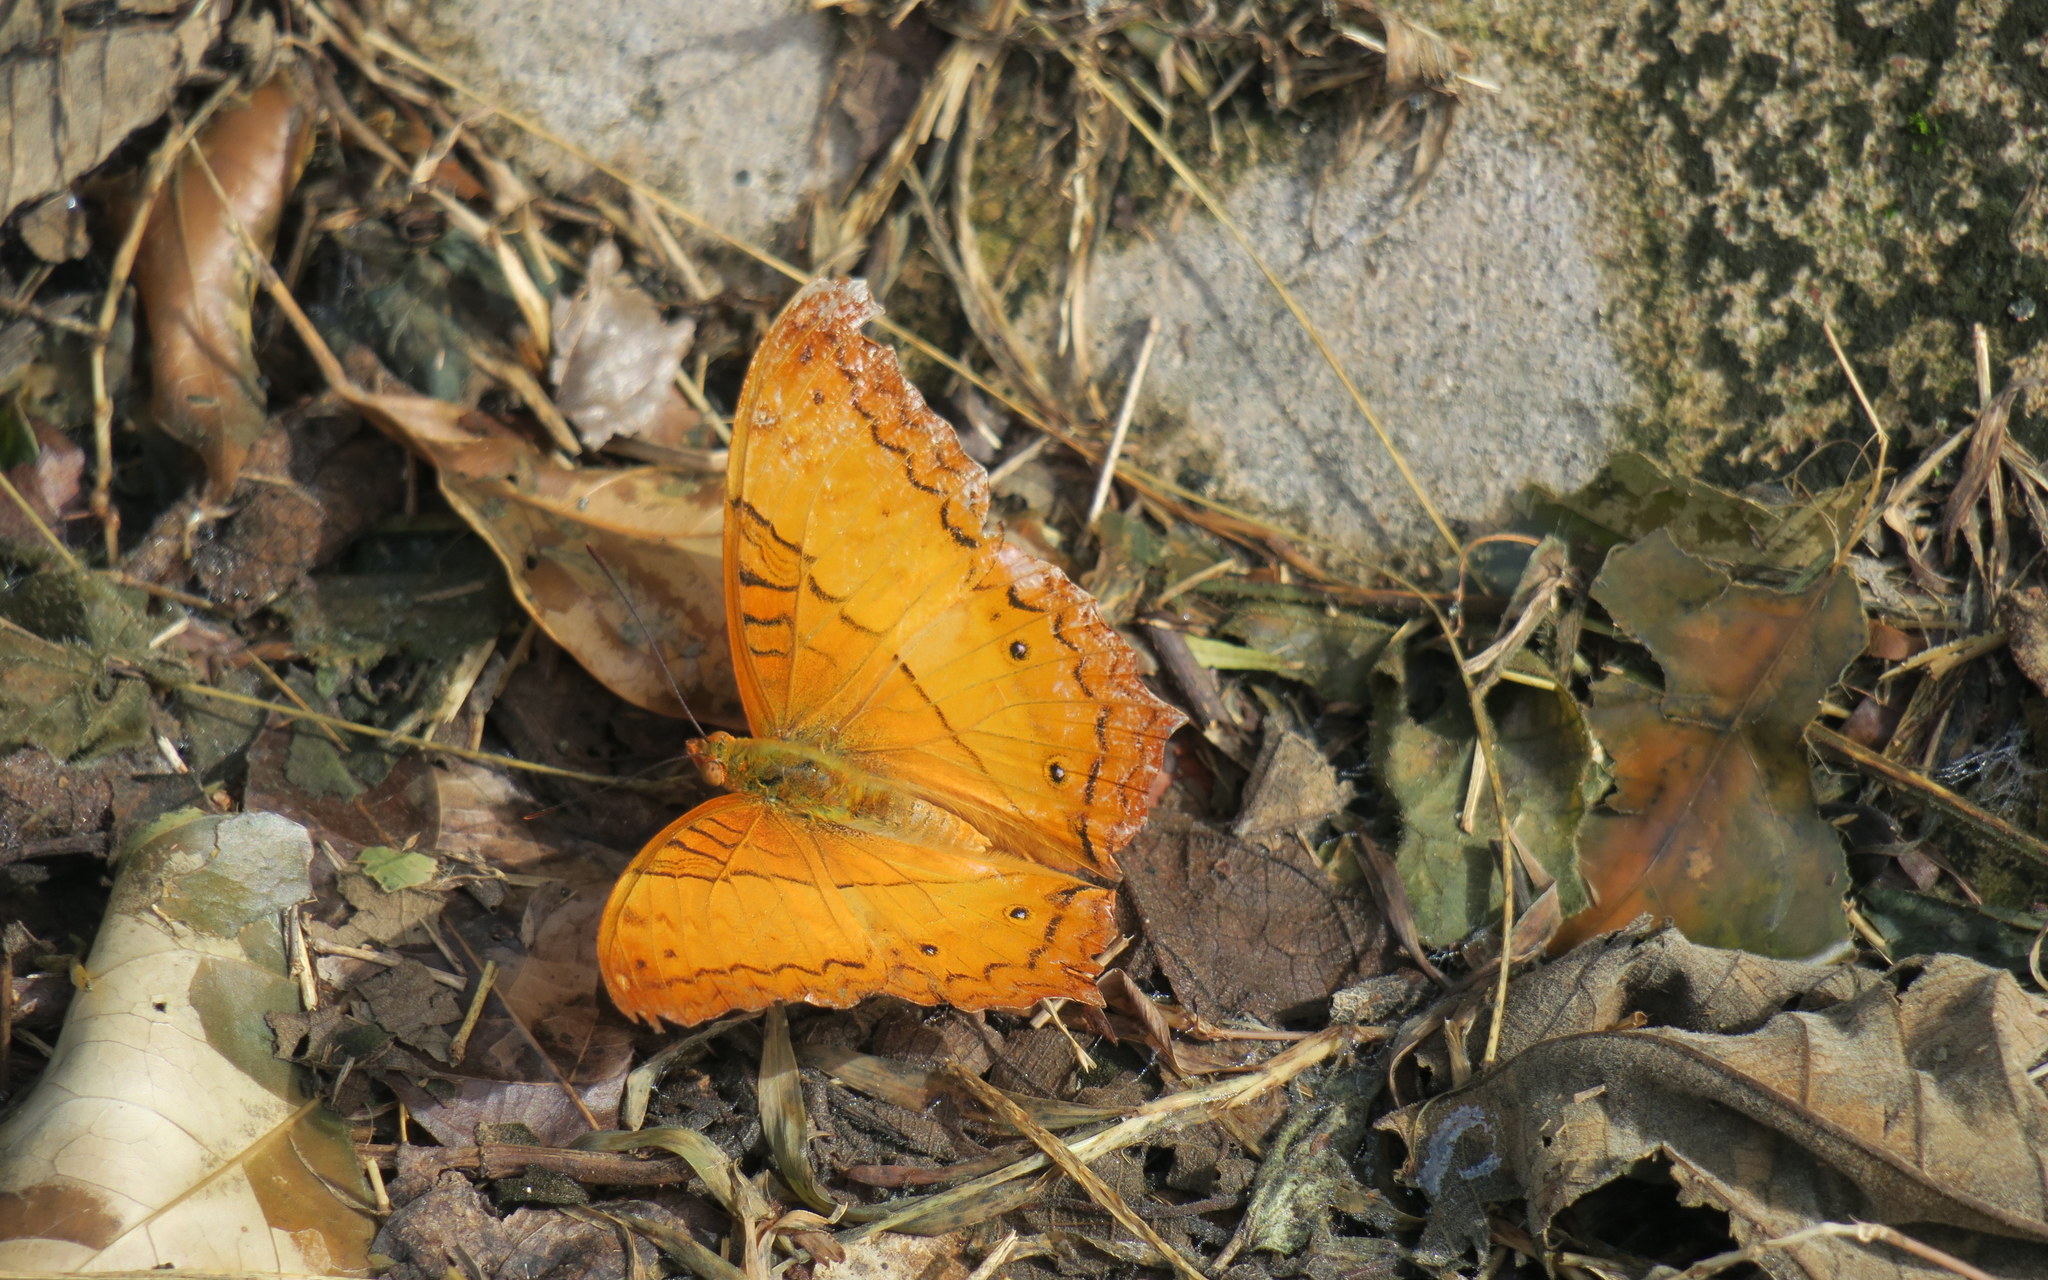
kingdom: Animalia
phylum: Arthropoda
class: Insecta
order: Lepidoptera
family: Nymphalidae
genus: Vindula
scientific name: Vindula erota
